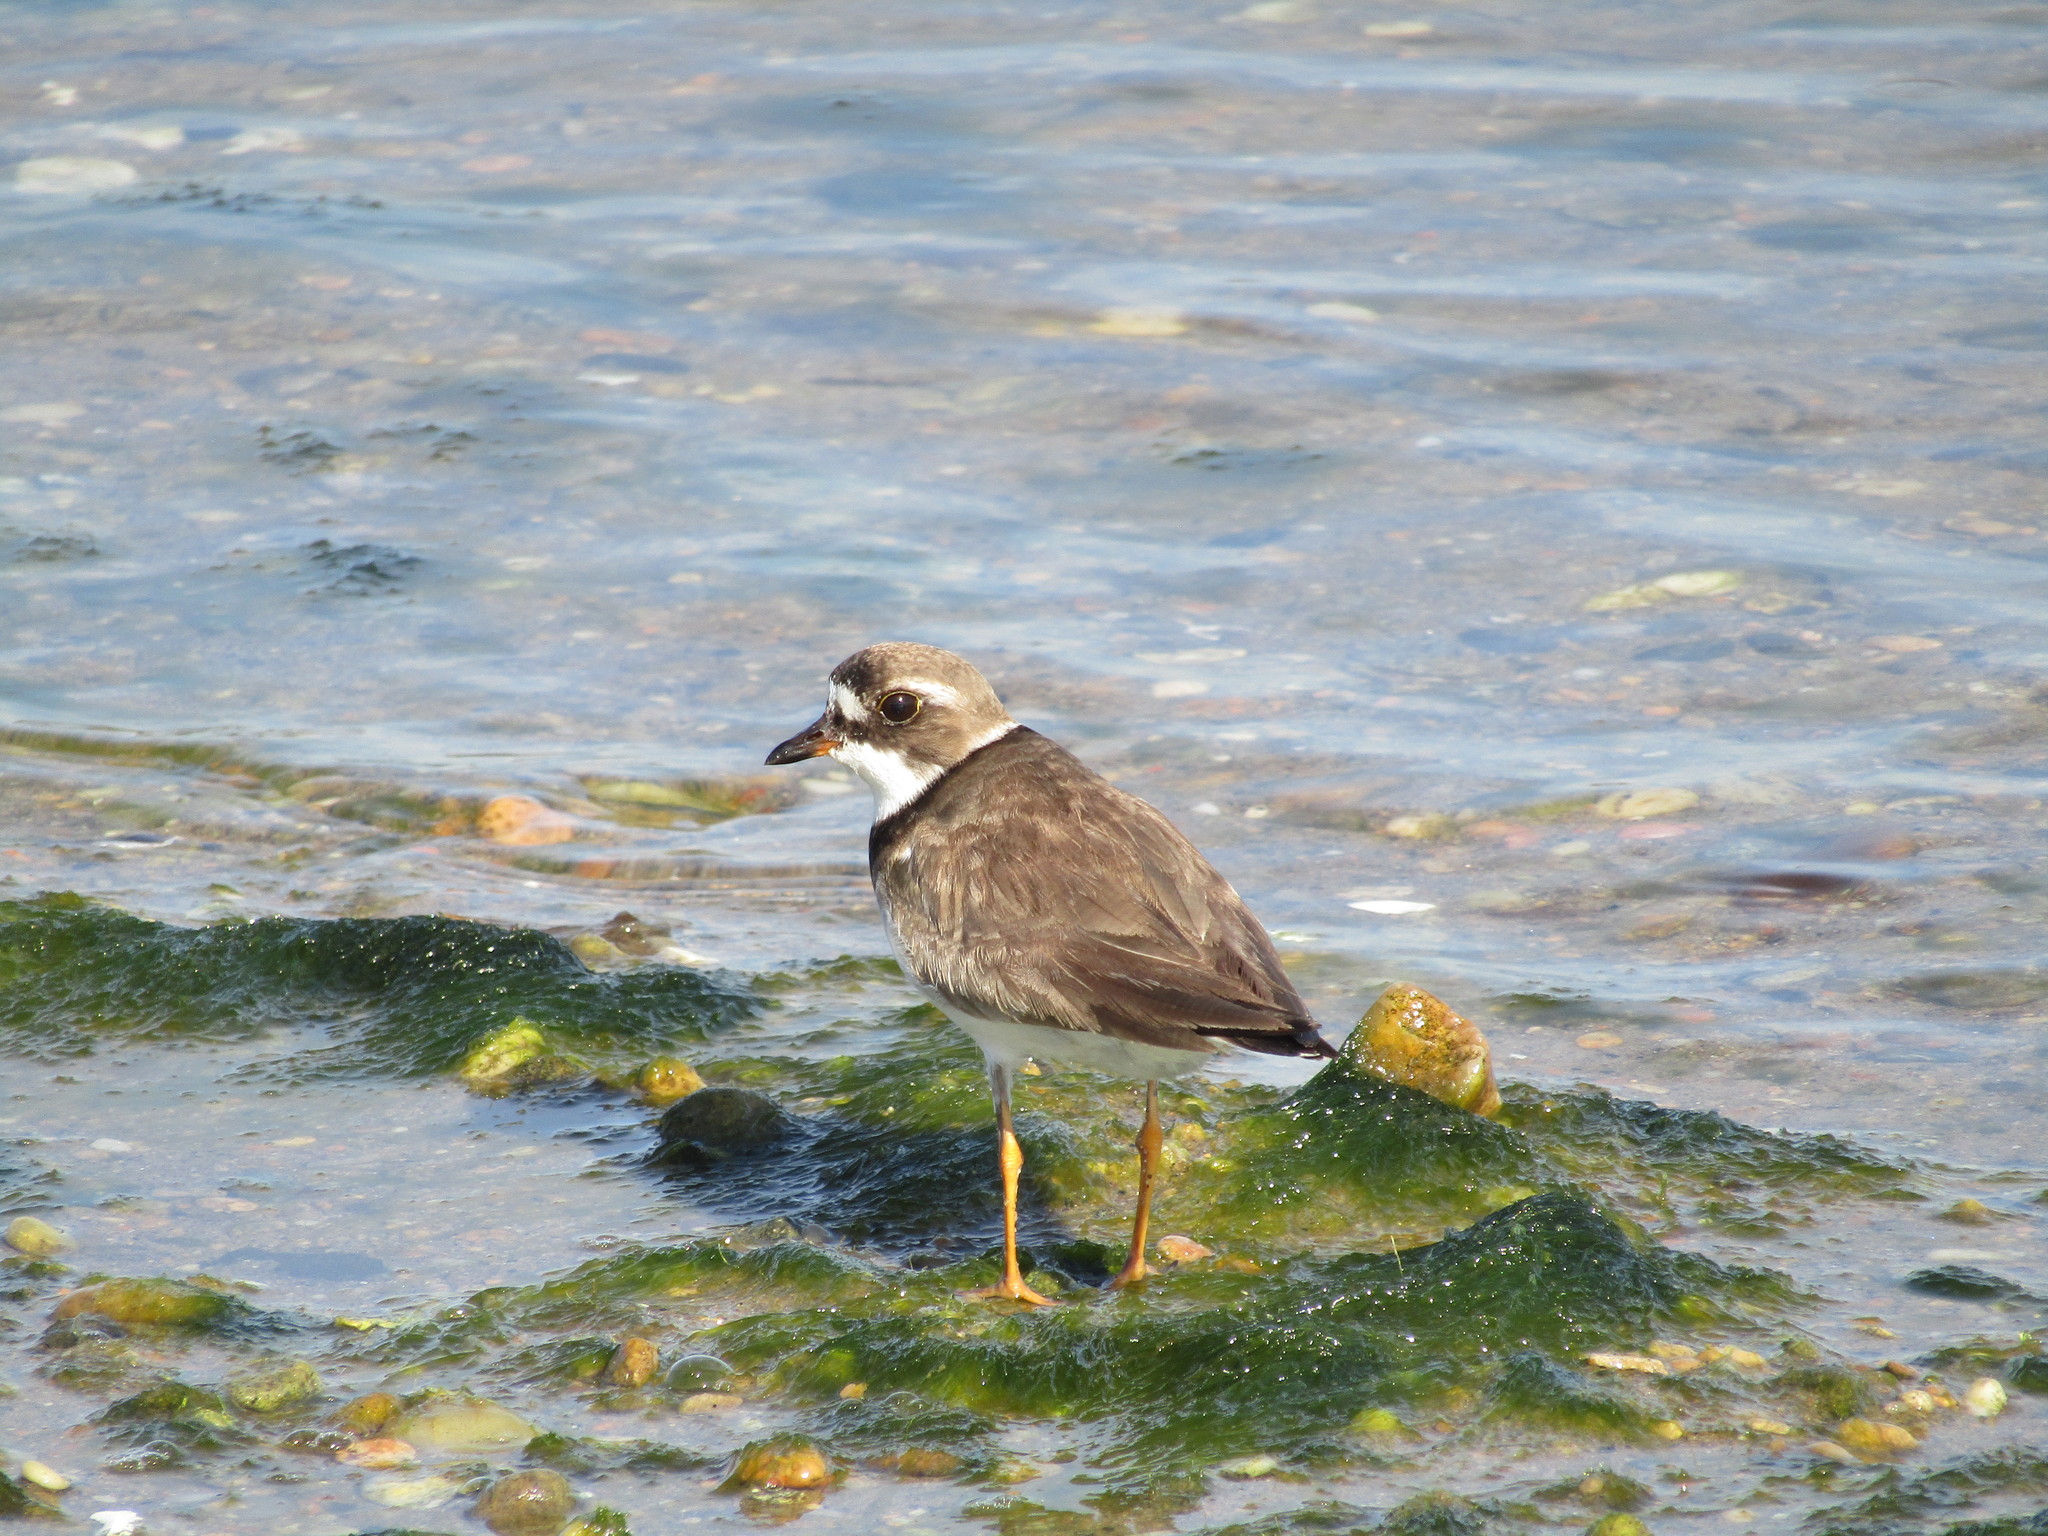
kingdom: Animalia
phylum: Chordata
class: Aves
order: Charadriiformes
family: Charadriidae
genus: Charadrius
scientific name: Charadrius semipalmatus
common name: Semipalmated plover
